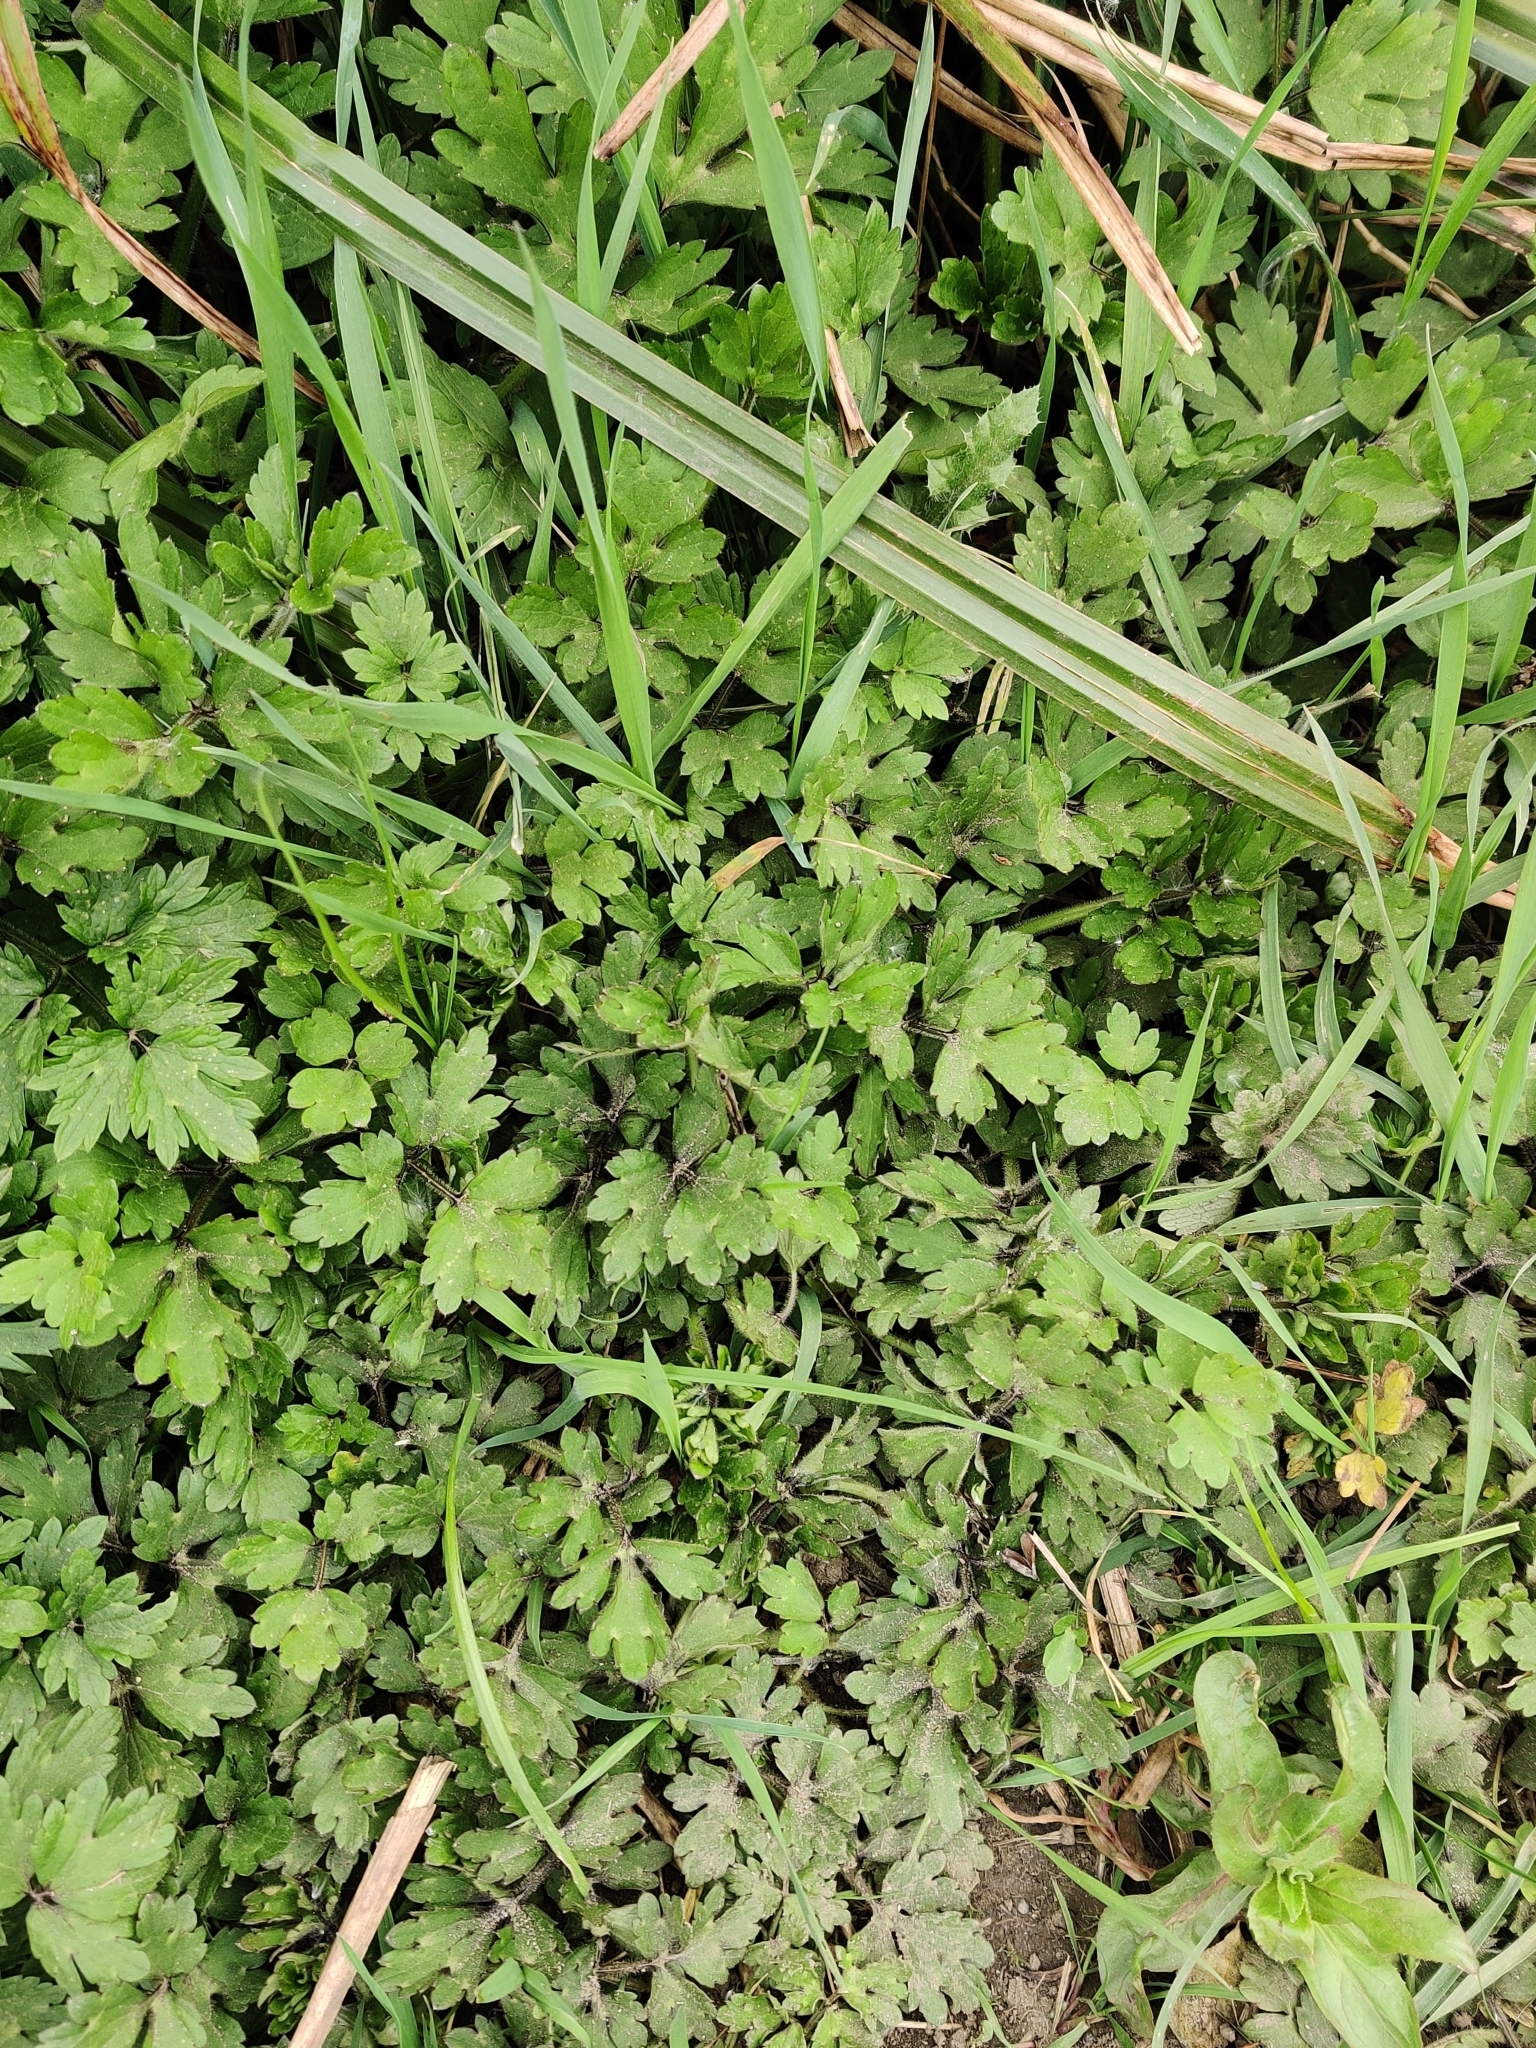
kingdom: Plantae
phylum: Tracheophyta
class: Magnoliopsida
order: Ranunculales
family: Ranunculaceae
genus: Ranunculus
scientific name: Ranunculus repens
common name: Creeping buttercup
